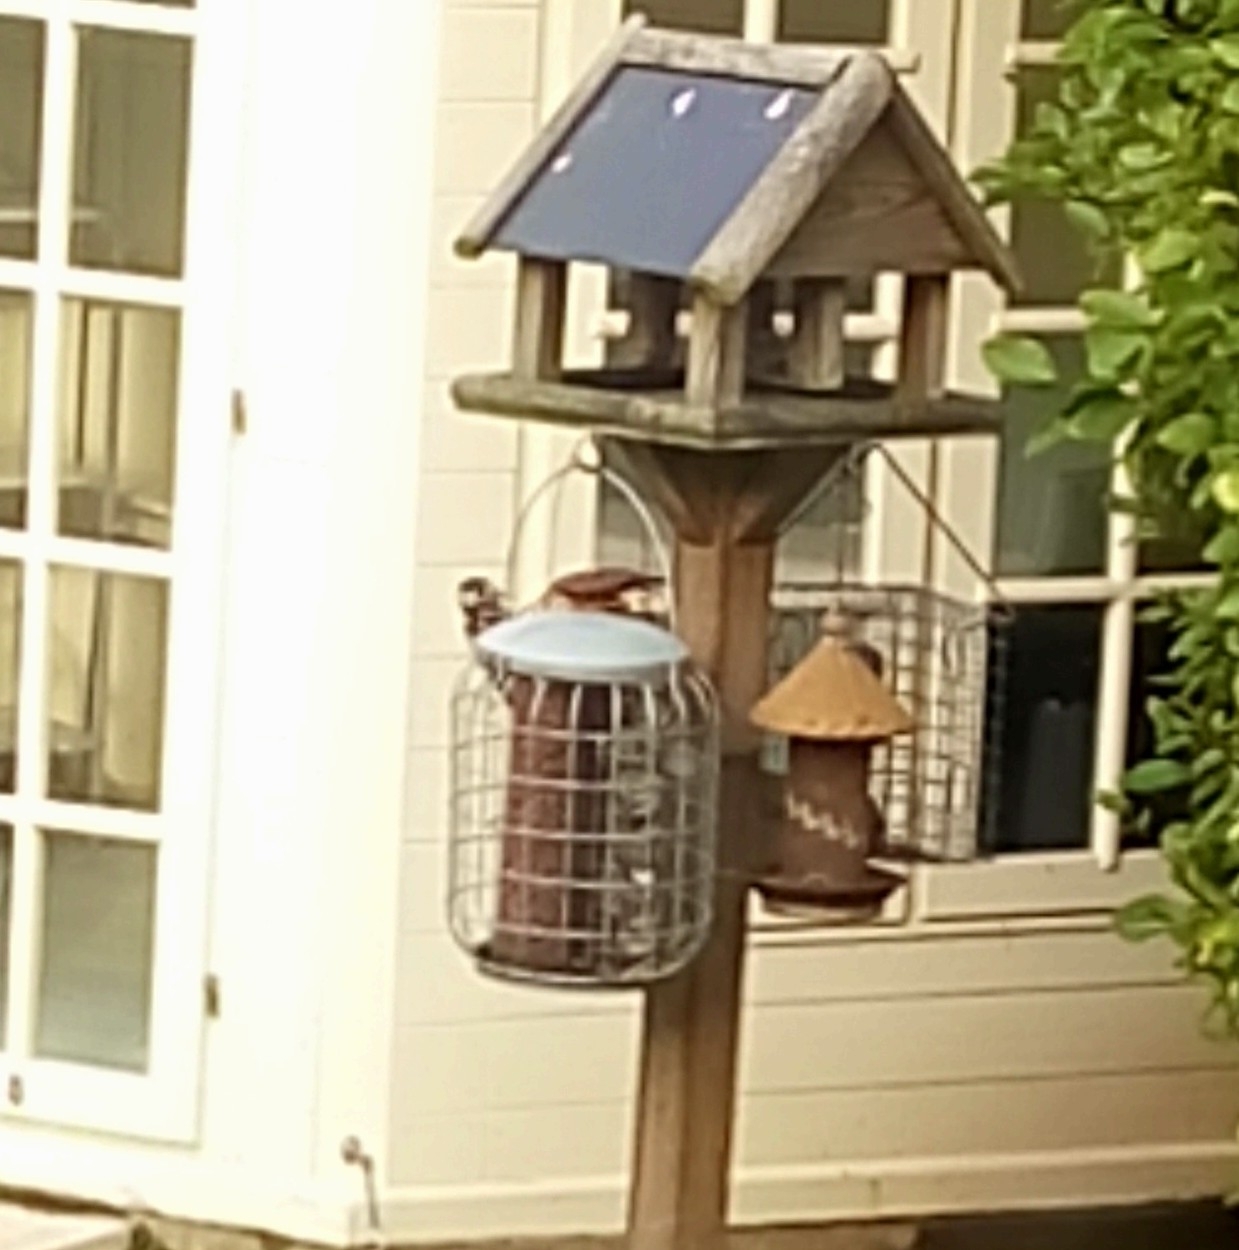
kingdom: Animalia
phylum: Chordata
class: Aves
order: Piciformes
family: Picidae
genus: Dendrocopos
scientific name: Dendrocopos major
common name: Great spotted woodpecker
